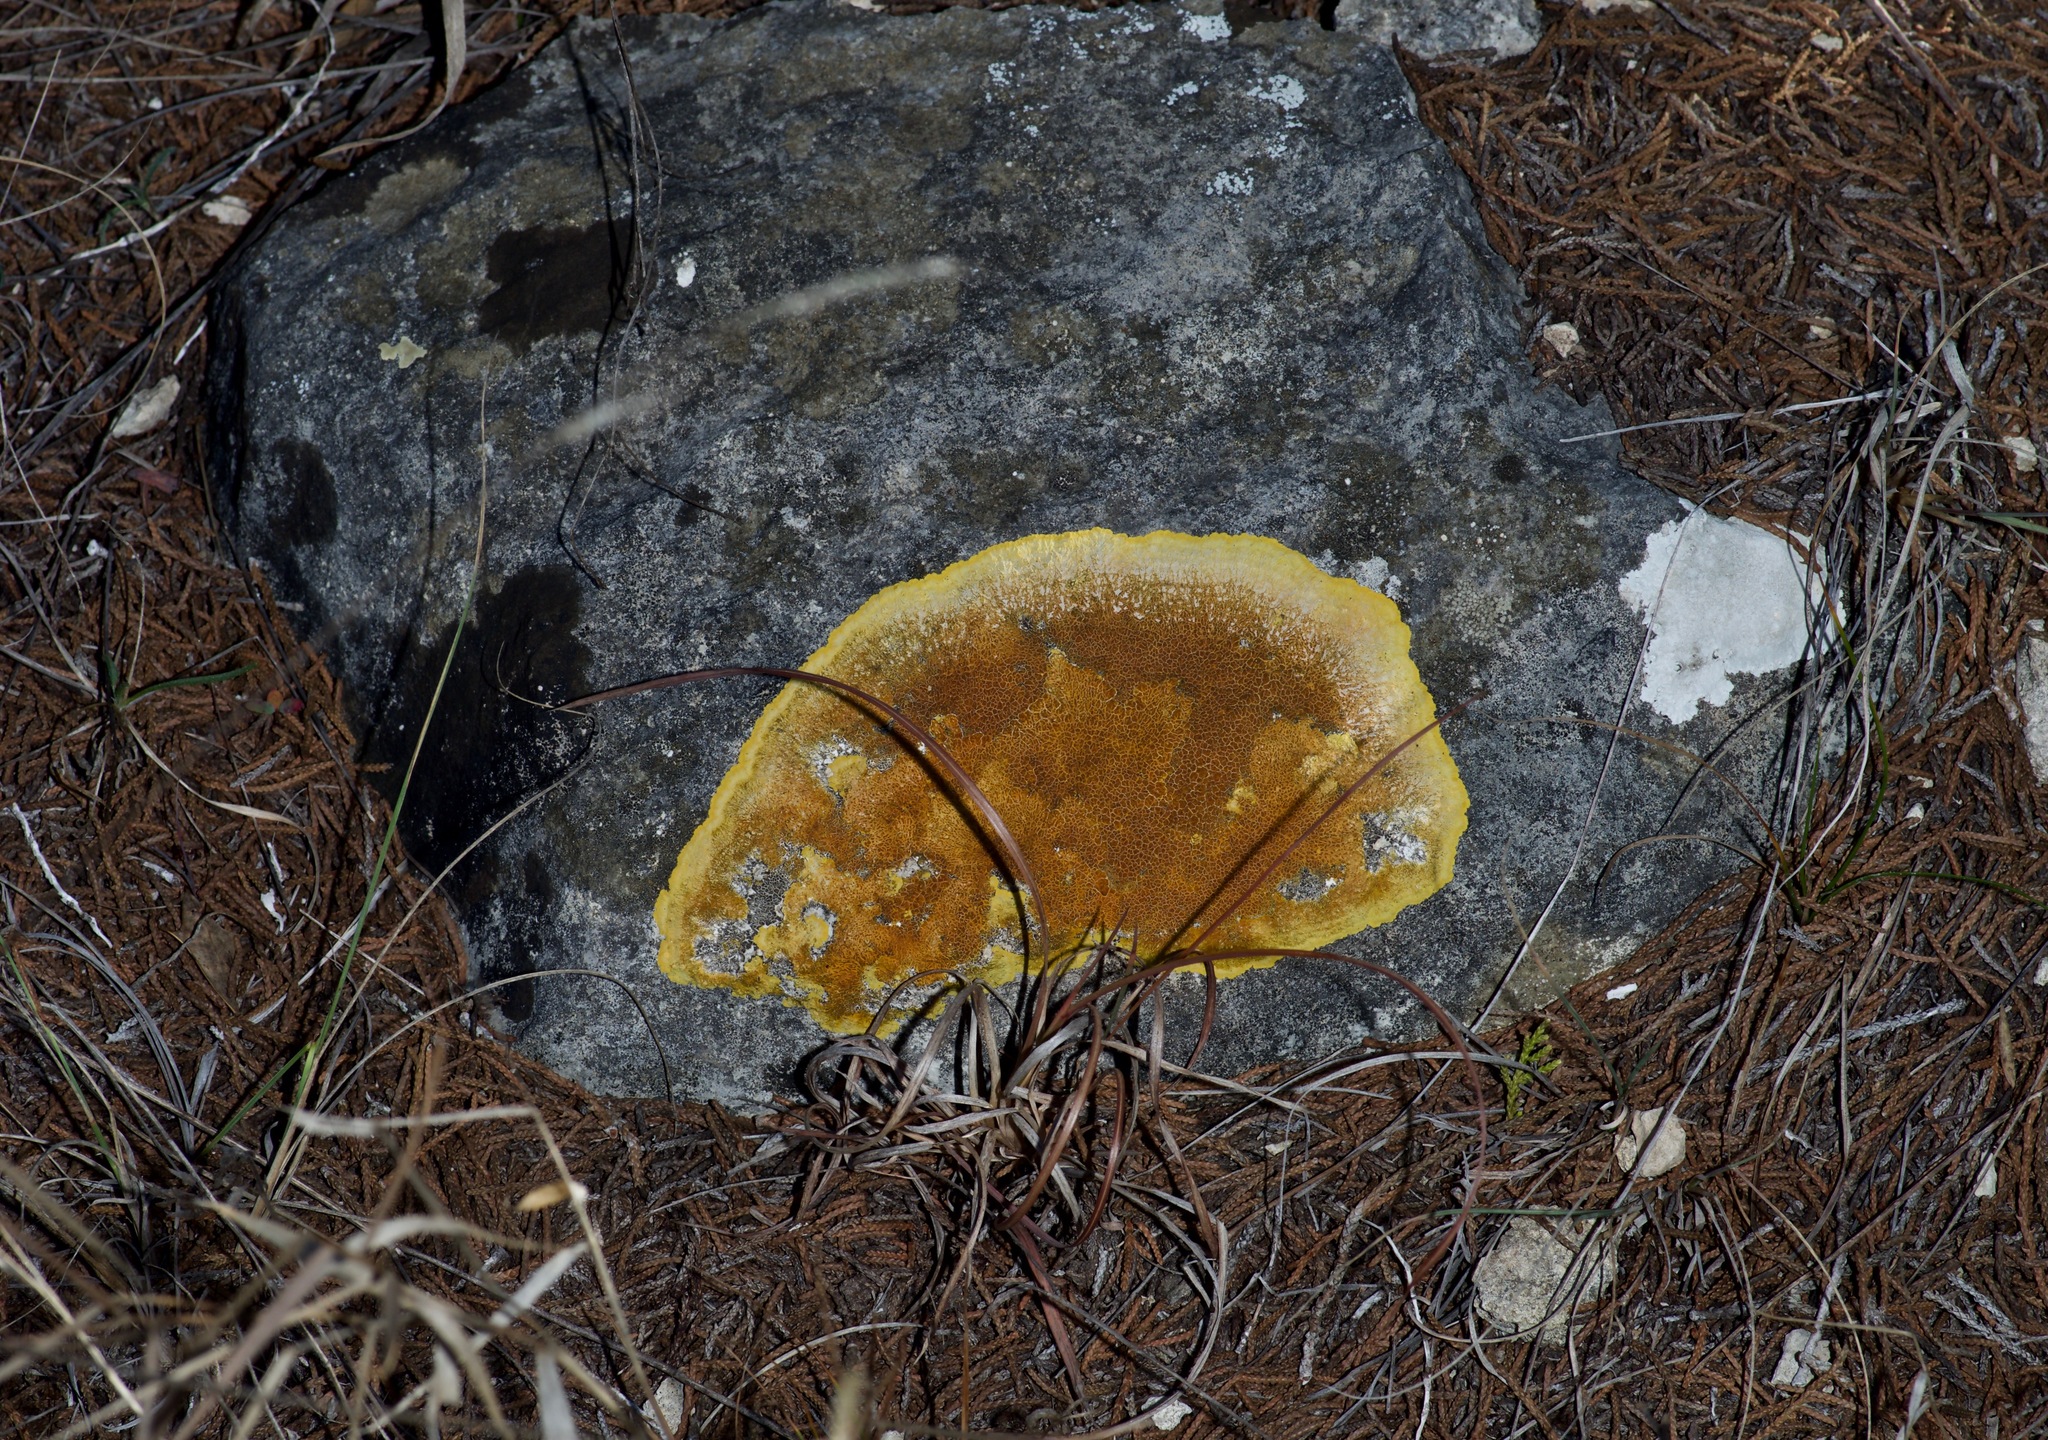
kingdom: Fungi
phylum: Ascomycota
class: Lecanoromycetes
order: Teloschistales
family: Teloschistaceae
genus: Caloplaca
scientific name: Caloplaca eugyra
